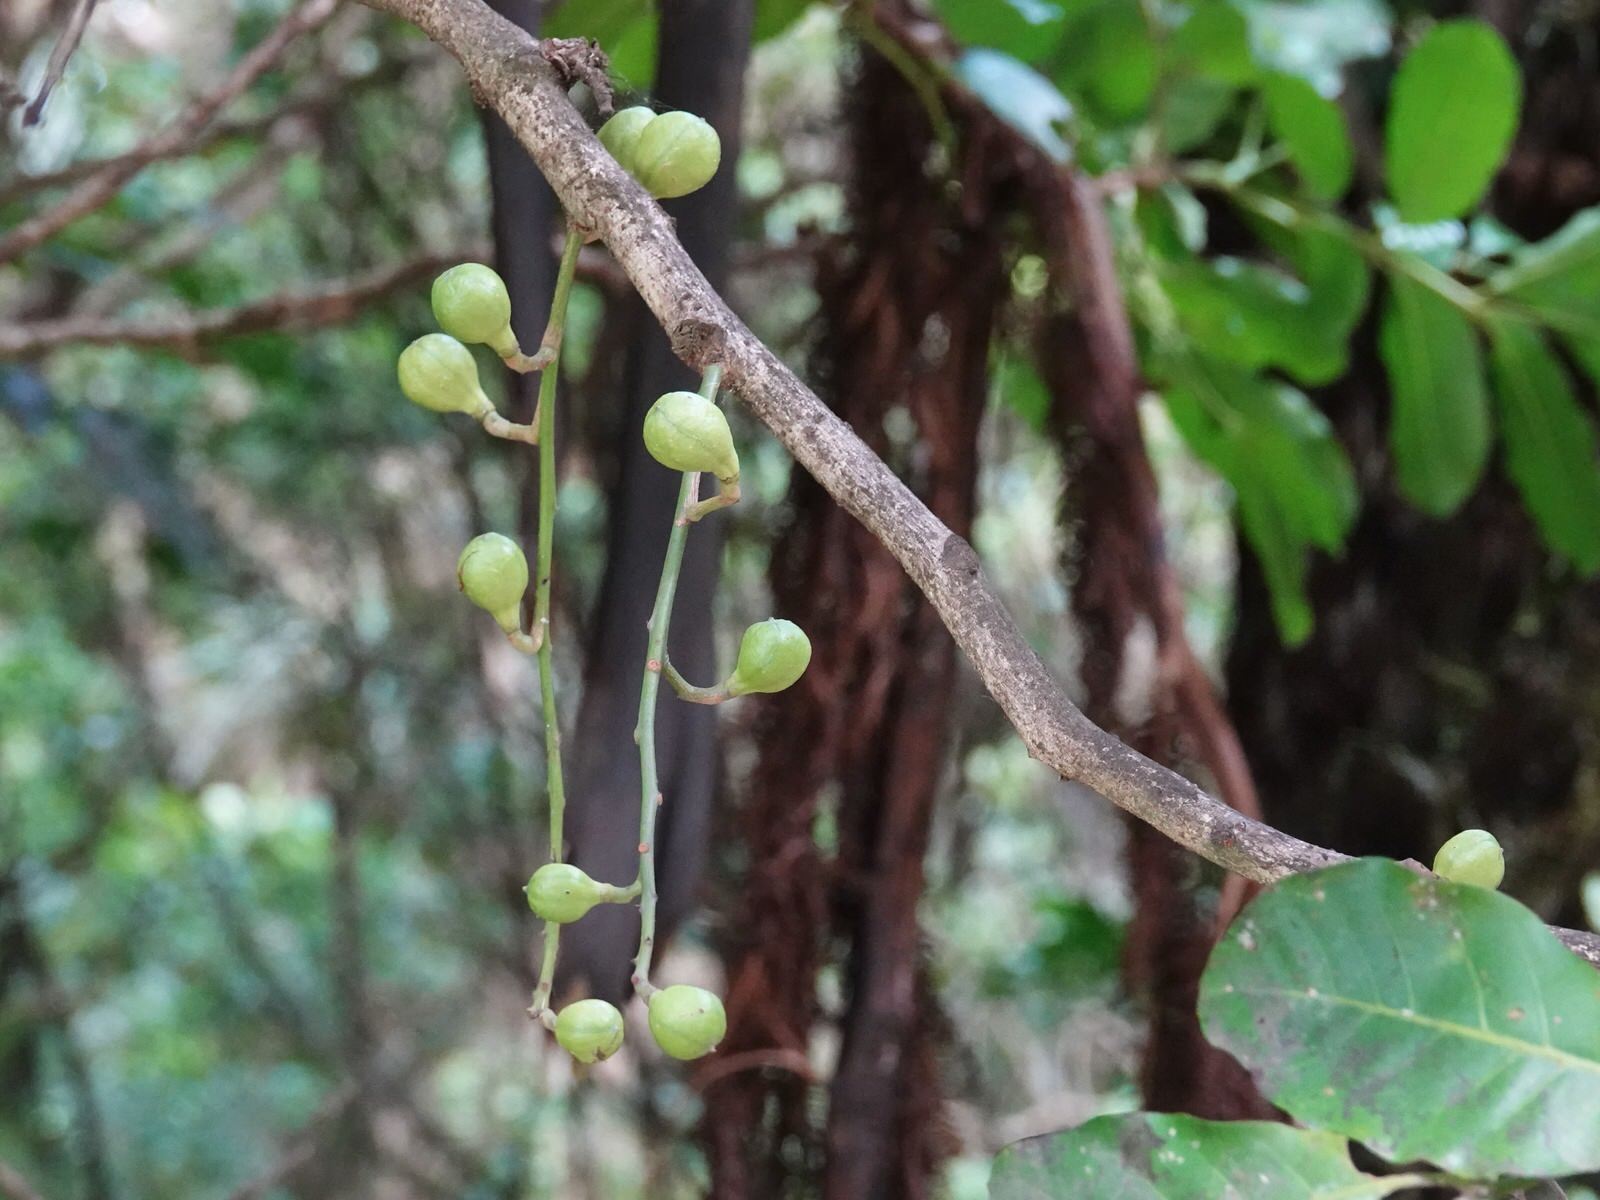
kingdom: Plantae
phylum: Tracheophyta
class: Magnoliopsida
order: Sapindales
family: Meliaceae
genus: Didymocheton
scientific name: Didymocheton spectabilis
